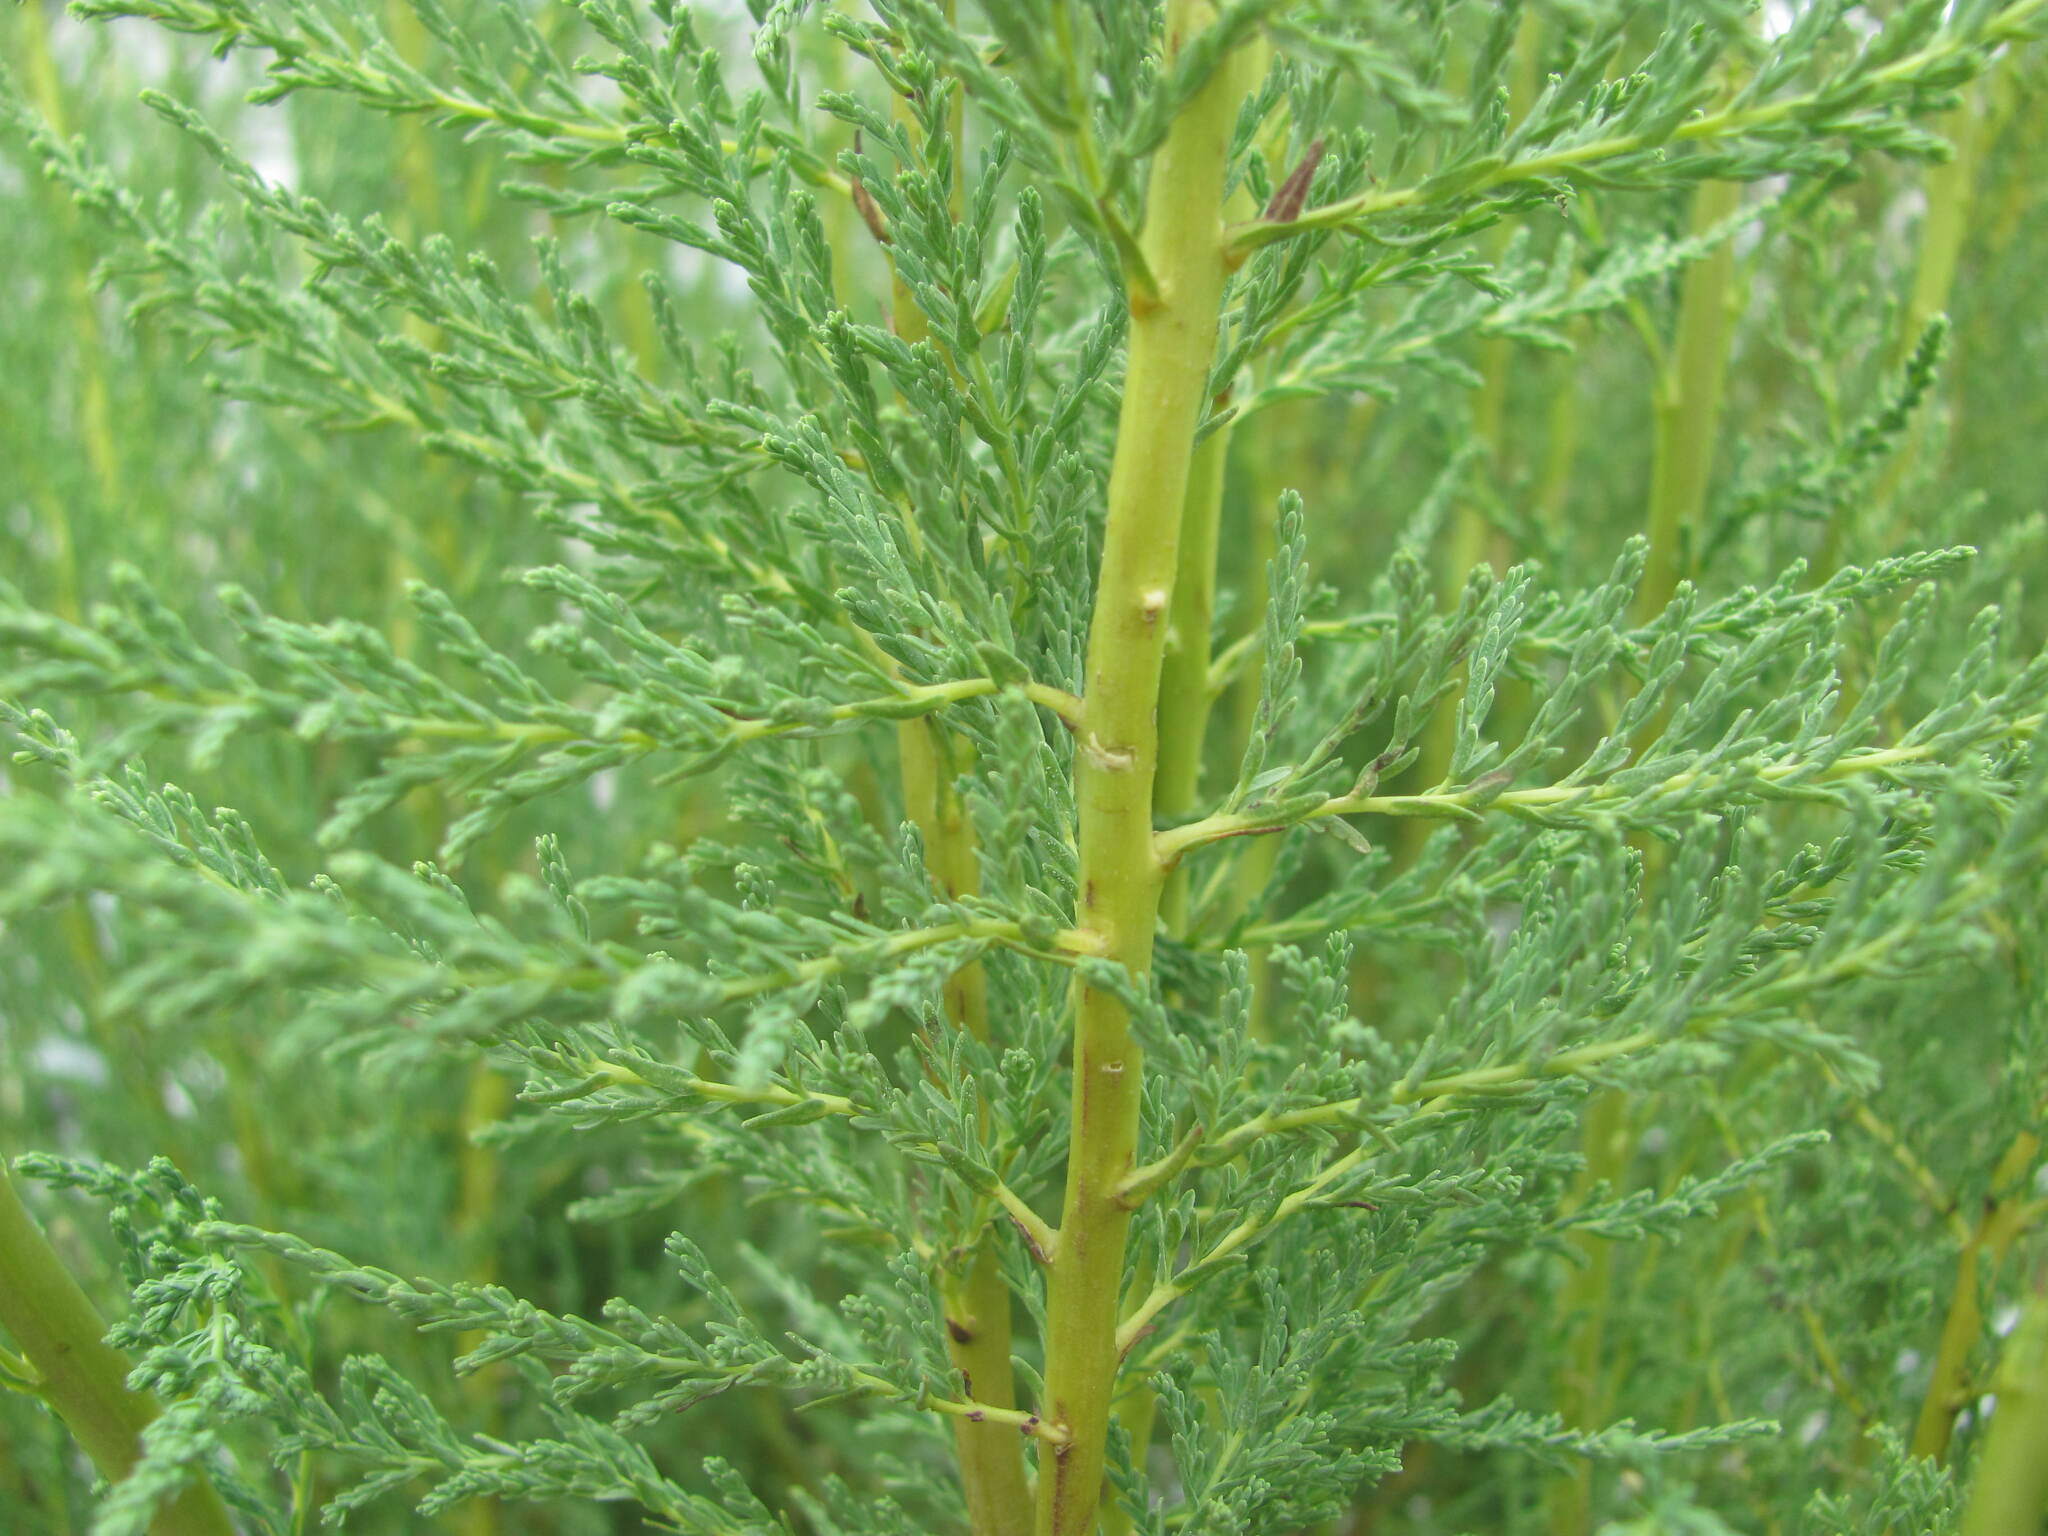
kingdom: Plantae
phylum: Tracheophyta
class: Magnoliopsida
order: Caryophyllales
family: Tamaricaceae
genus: Myricaria
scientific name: Myricaria germanica
